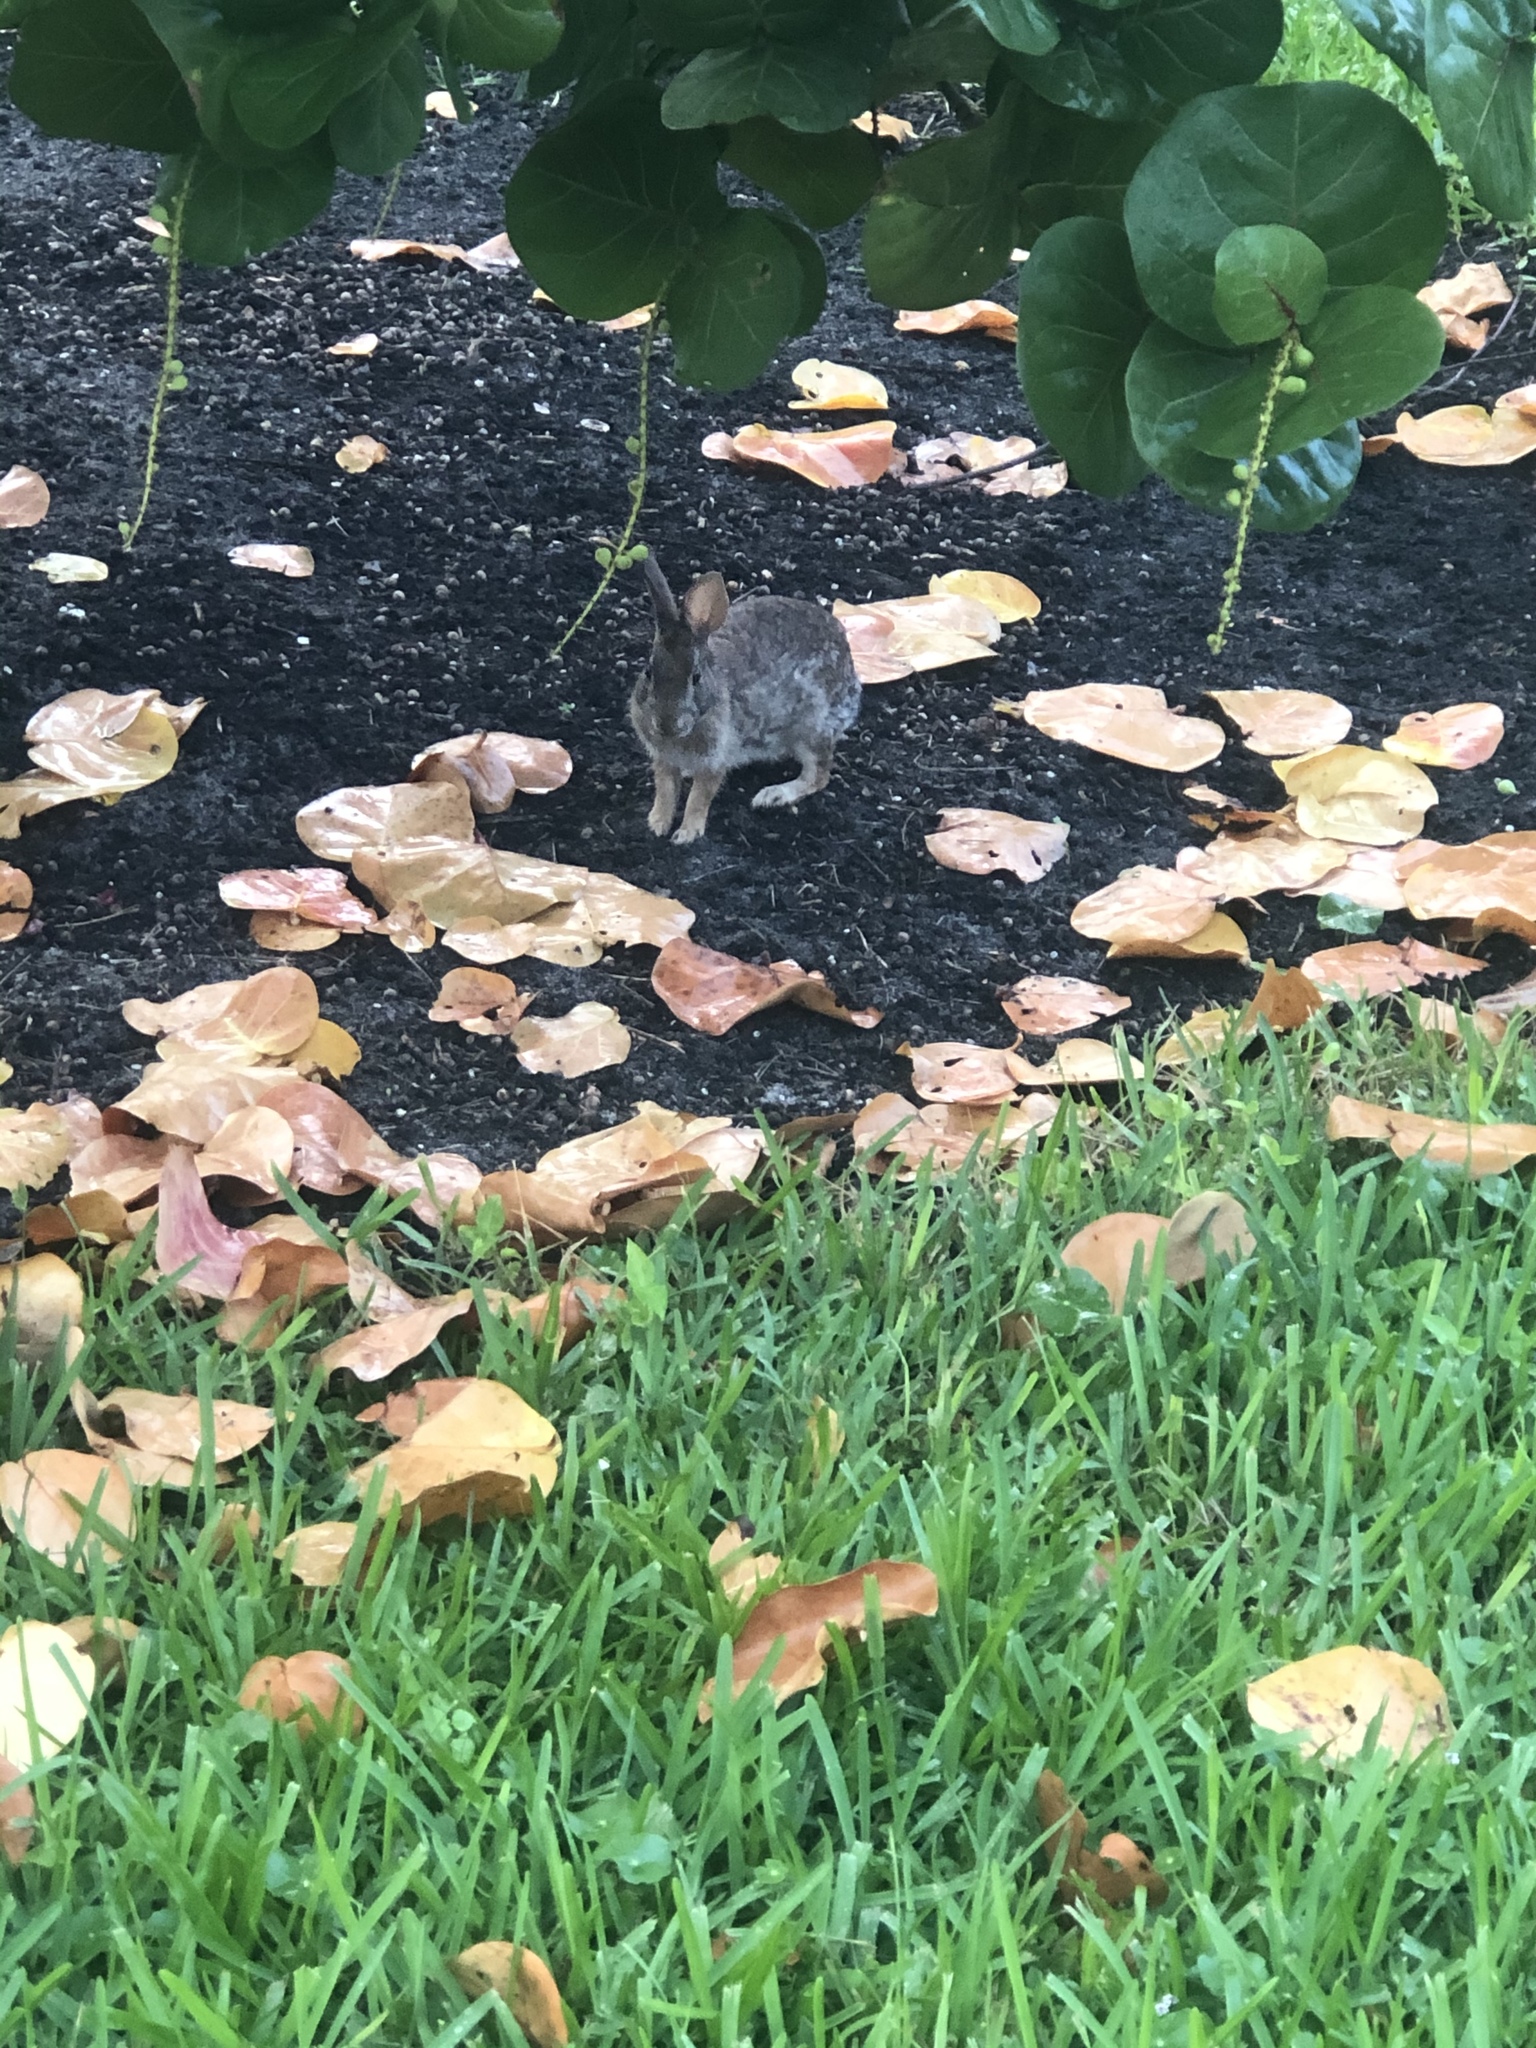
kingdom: Animalia
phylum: Chordata
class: Mammalia
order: Lagomorpha
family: Leporidae
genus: Sylvilagus
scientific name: Sylvilagus floridanus
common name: Eastern cottontail
